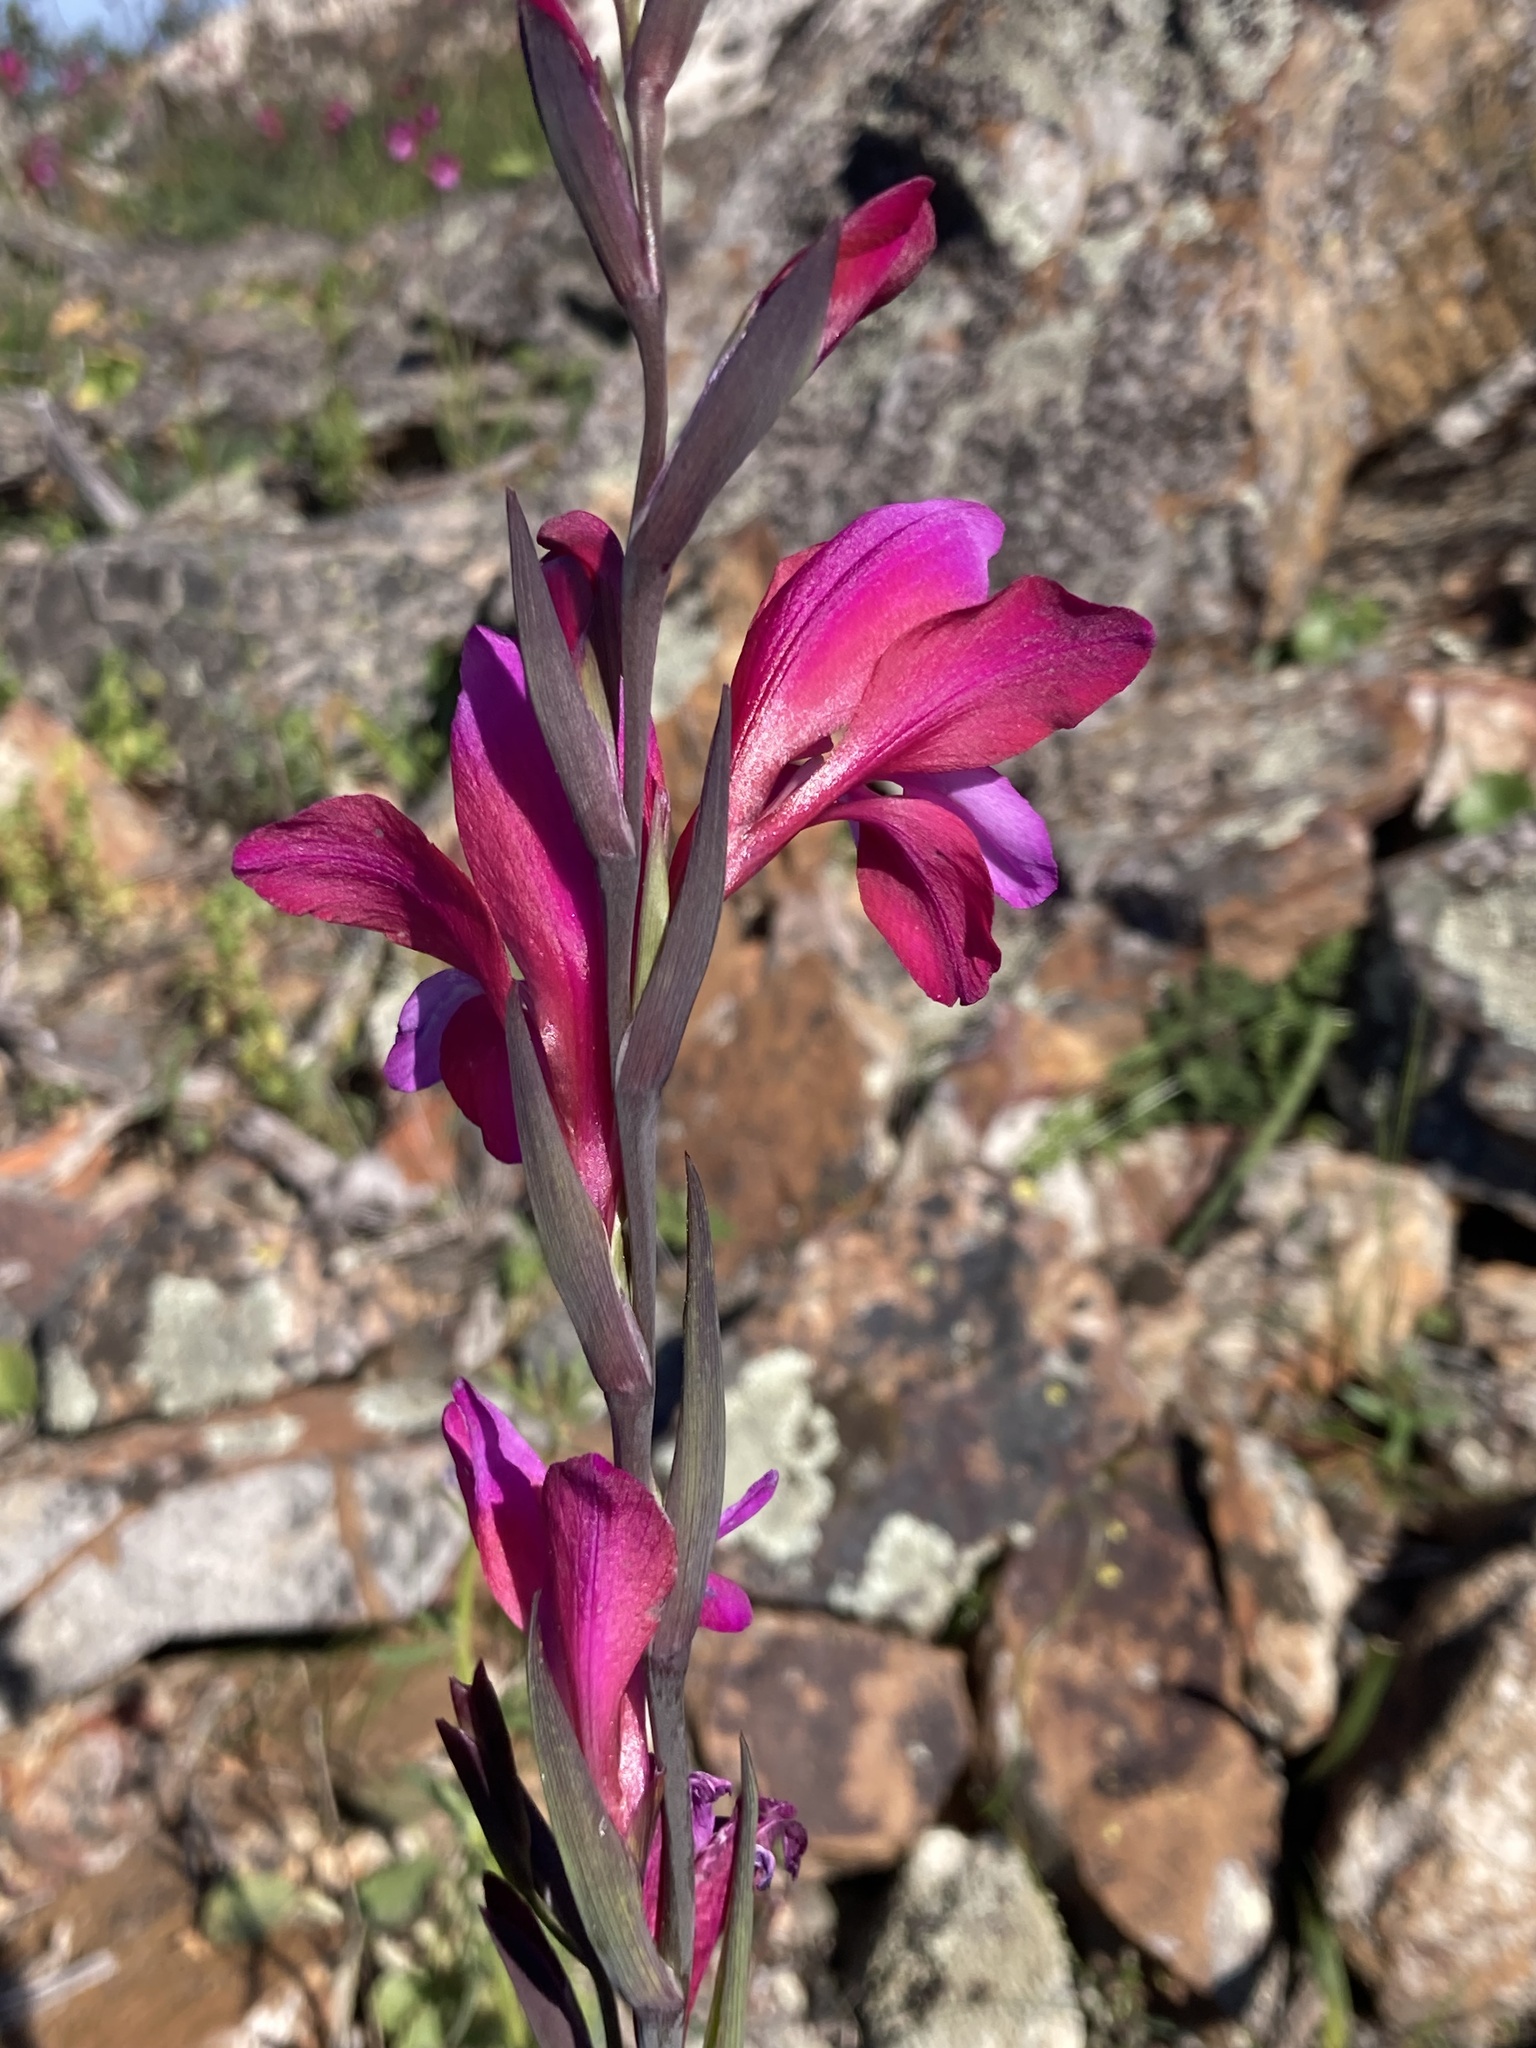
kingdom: Plantae
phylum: Tracheophyta
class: Liliopsida
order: Asparagales
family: Iridaceae
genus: Gladiolus
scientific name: Gladiolus illyricus
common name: Wild gladiolus
